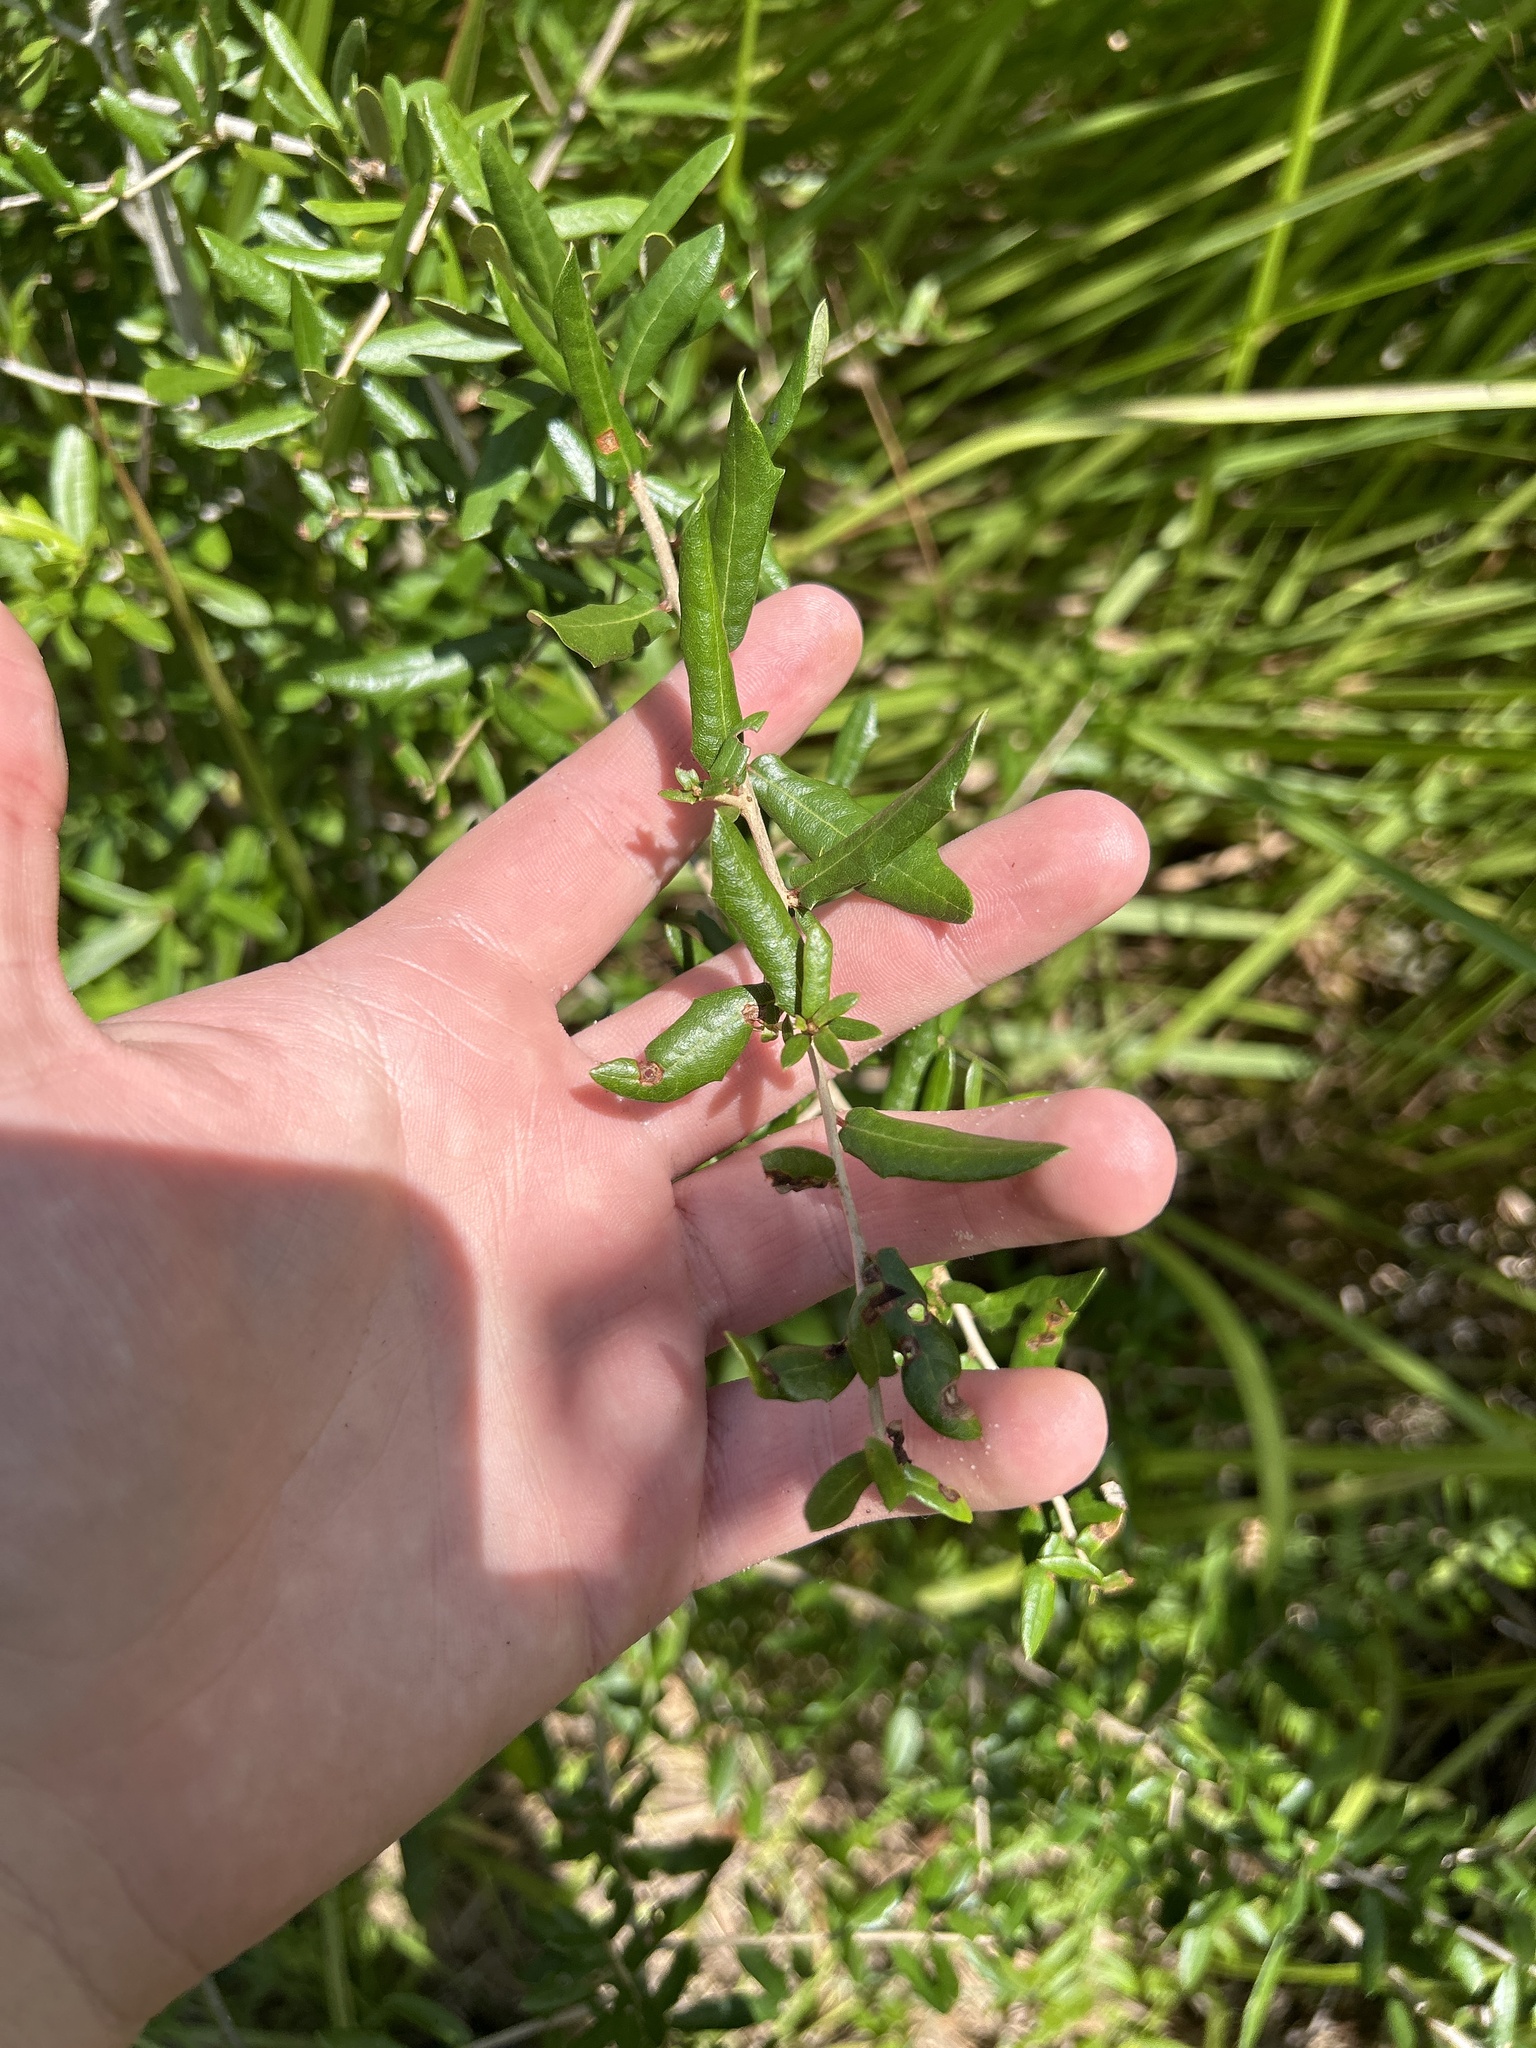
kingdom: Plantae
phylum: Tracheophyta
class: Magnoliopsida
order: Fagales
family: Fagaceae
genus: Quercus
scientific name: Quercus virginiana
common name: Southern live oak
